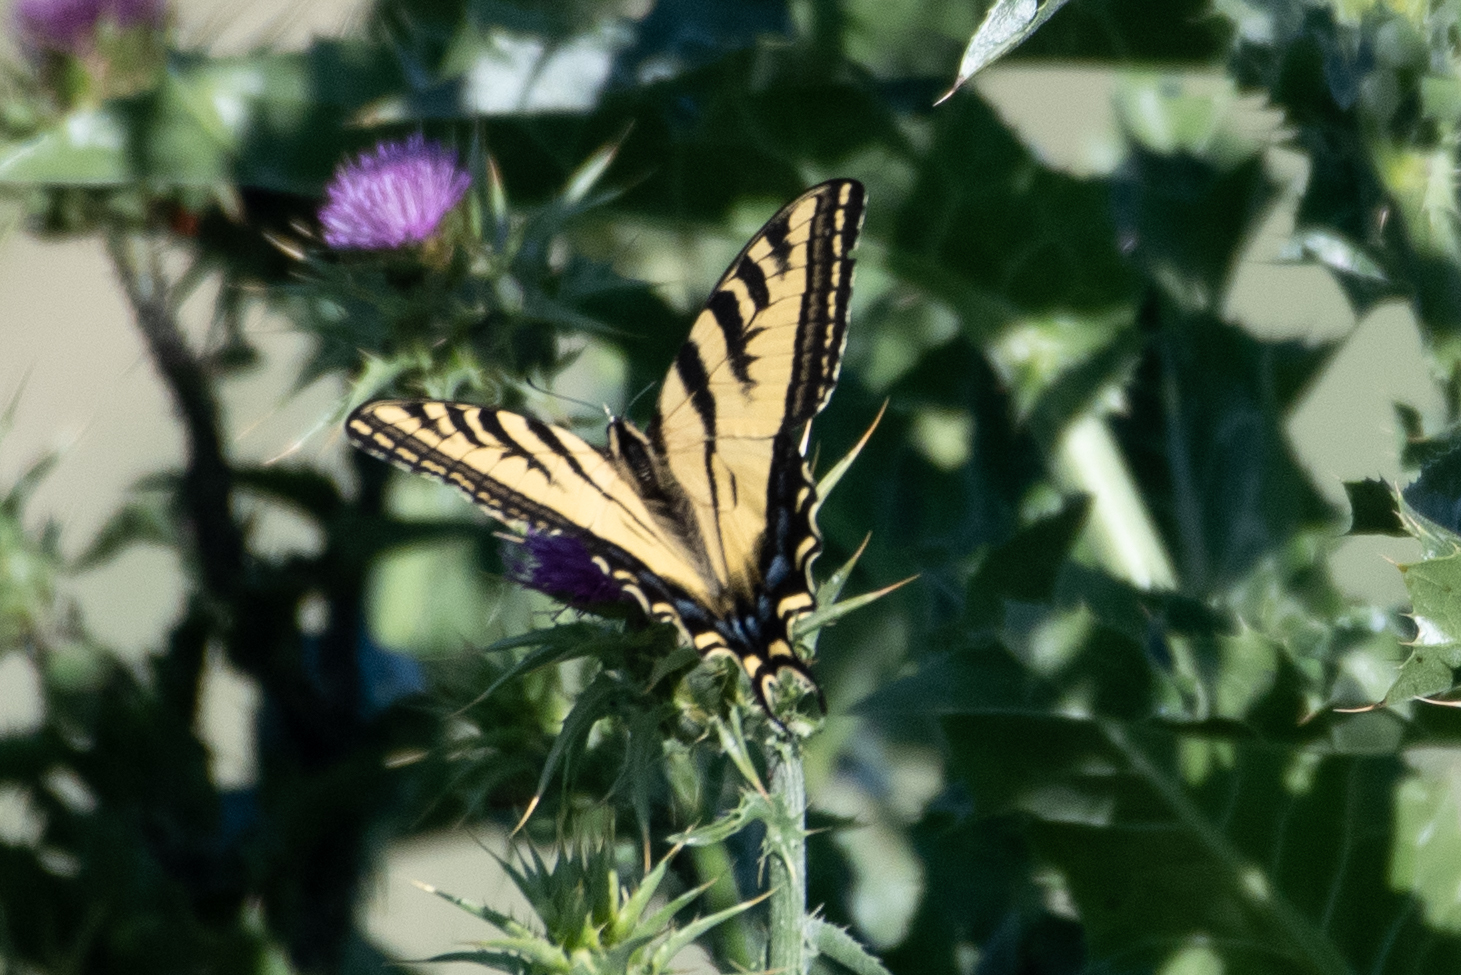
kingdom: Animalia
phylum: Arthropoda
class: Insecta
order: Lepidoptera
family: Papilionidae
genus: Papilio
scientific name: Papilio rutulus
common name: Western tiger swallowtail
